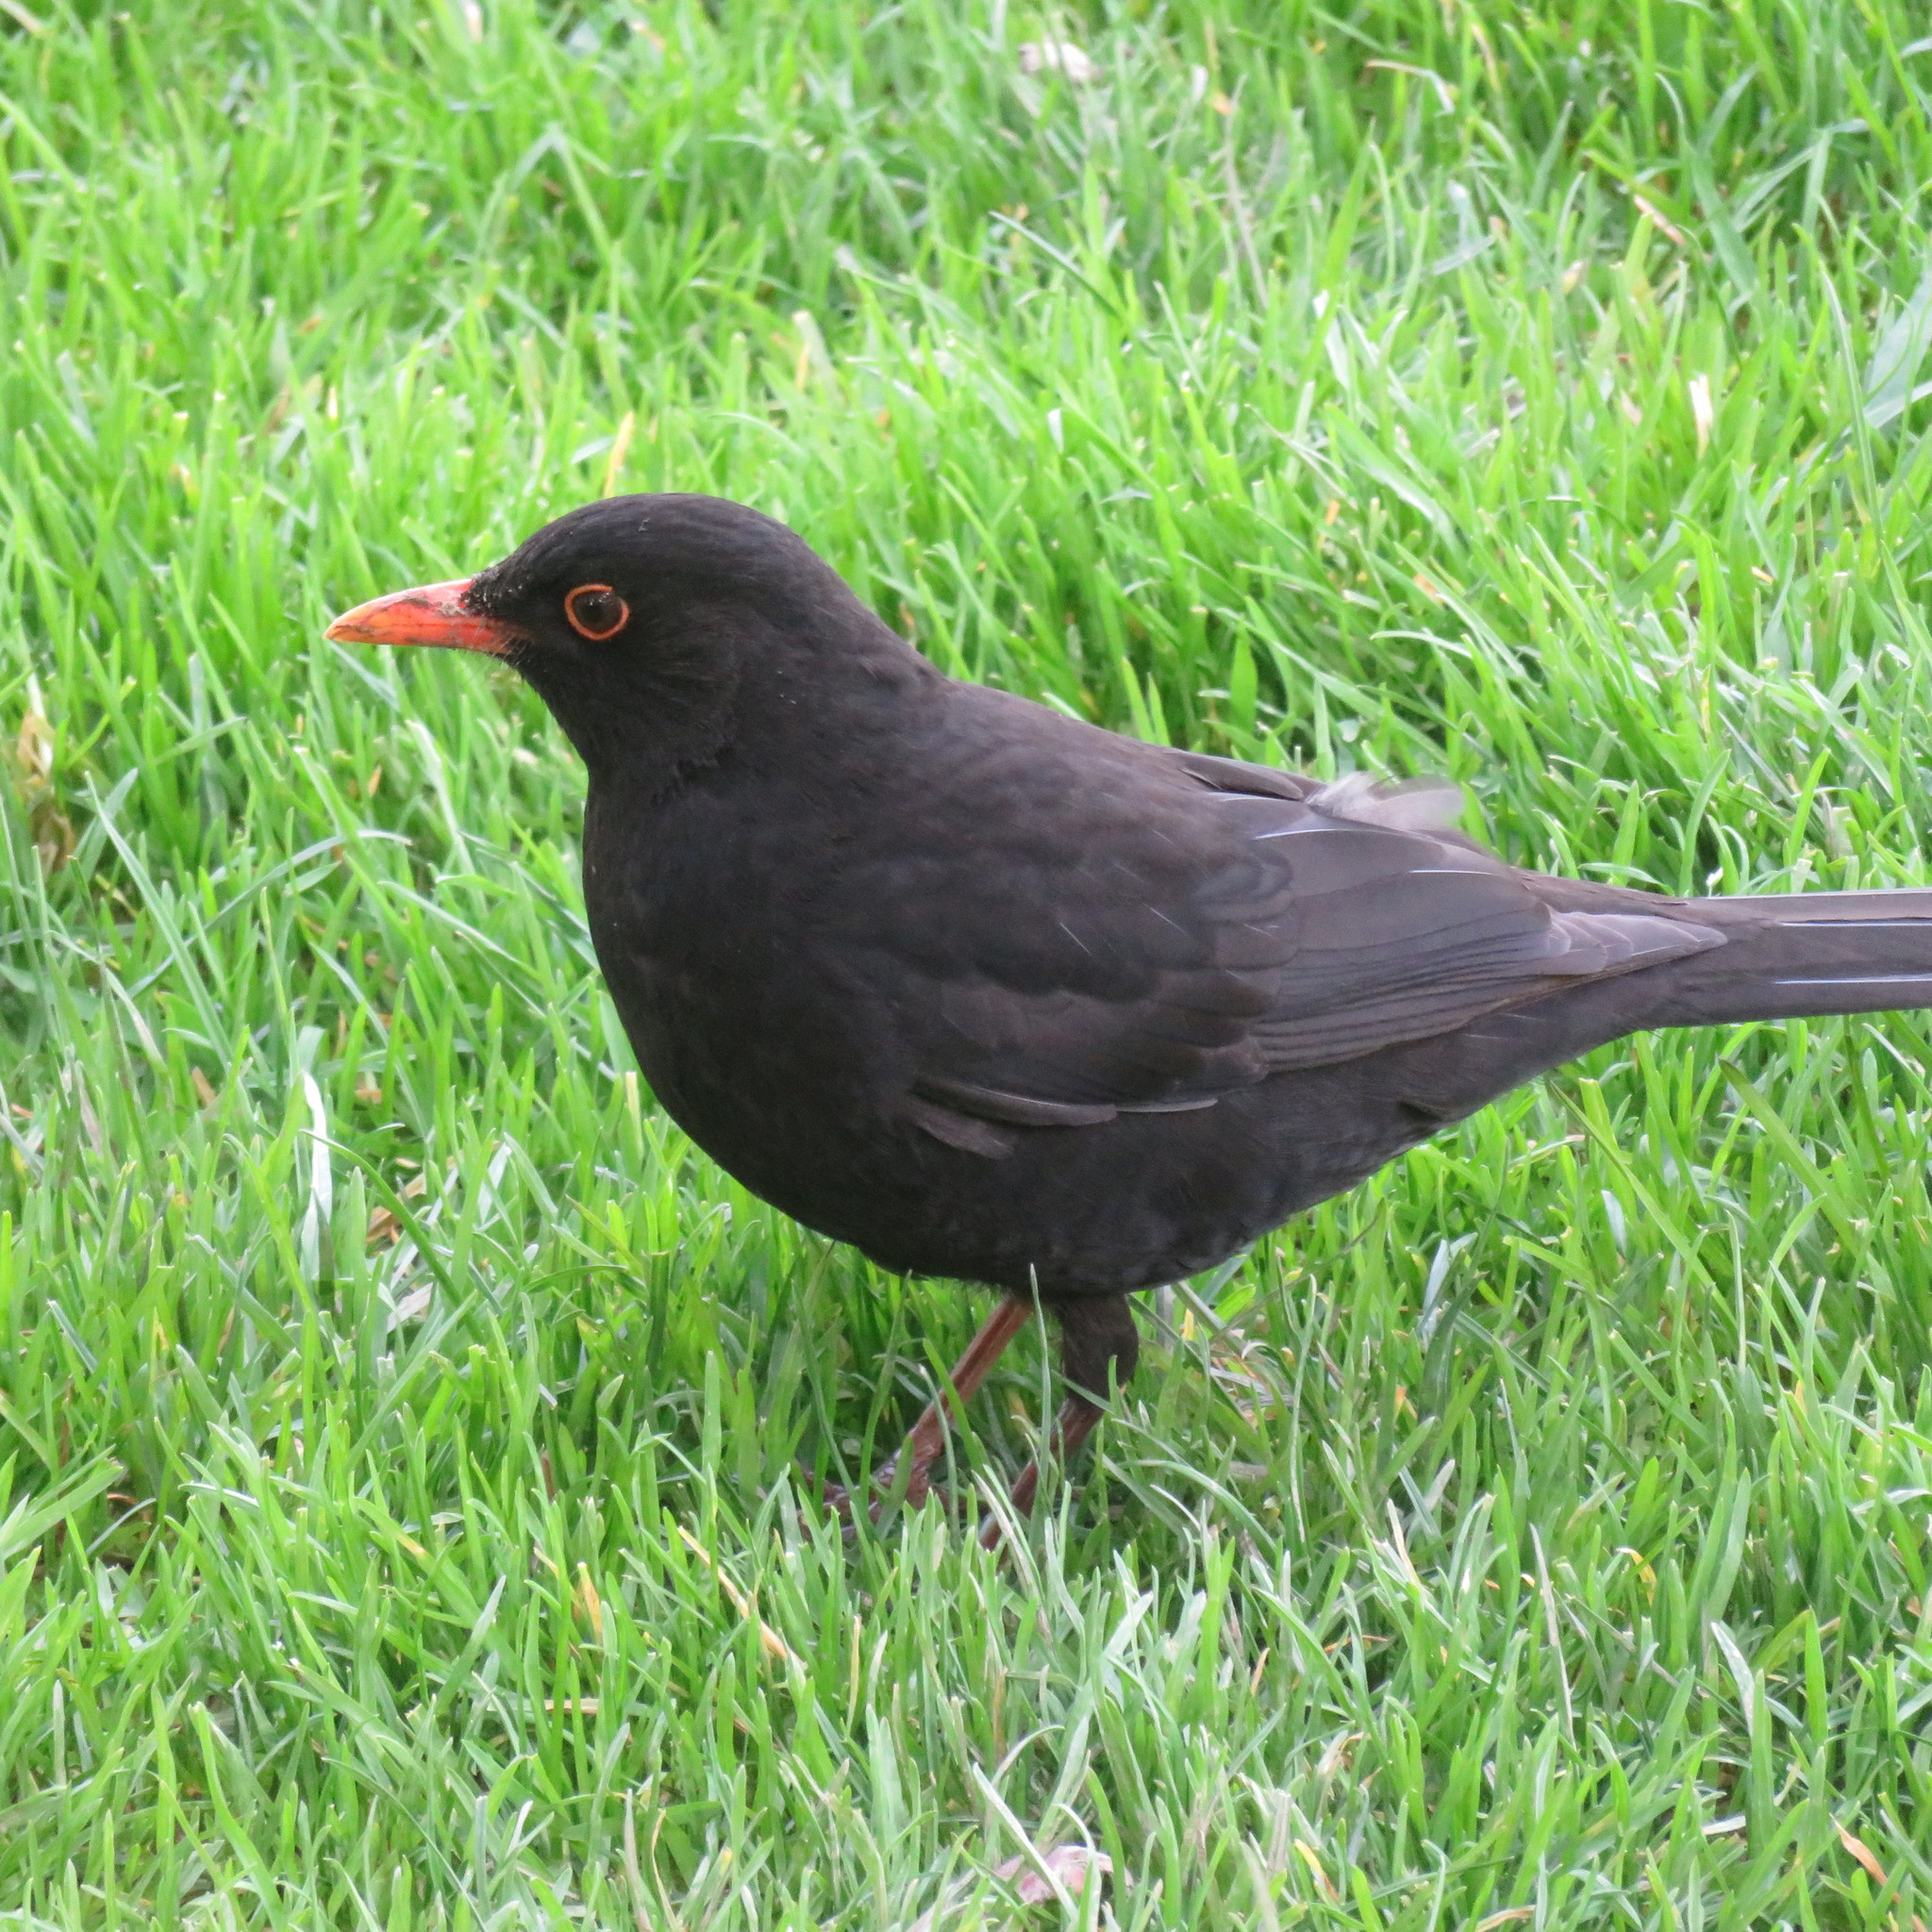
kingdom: Animalia
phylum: Chordata
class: Aves
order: Passeriformes
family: Turdidae
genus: Turdus
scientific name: Turdus merula
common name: Common blackbird
